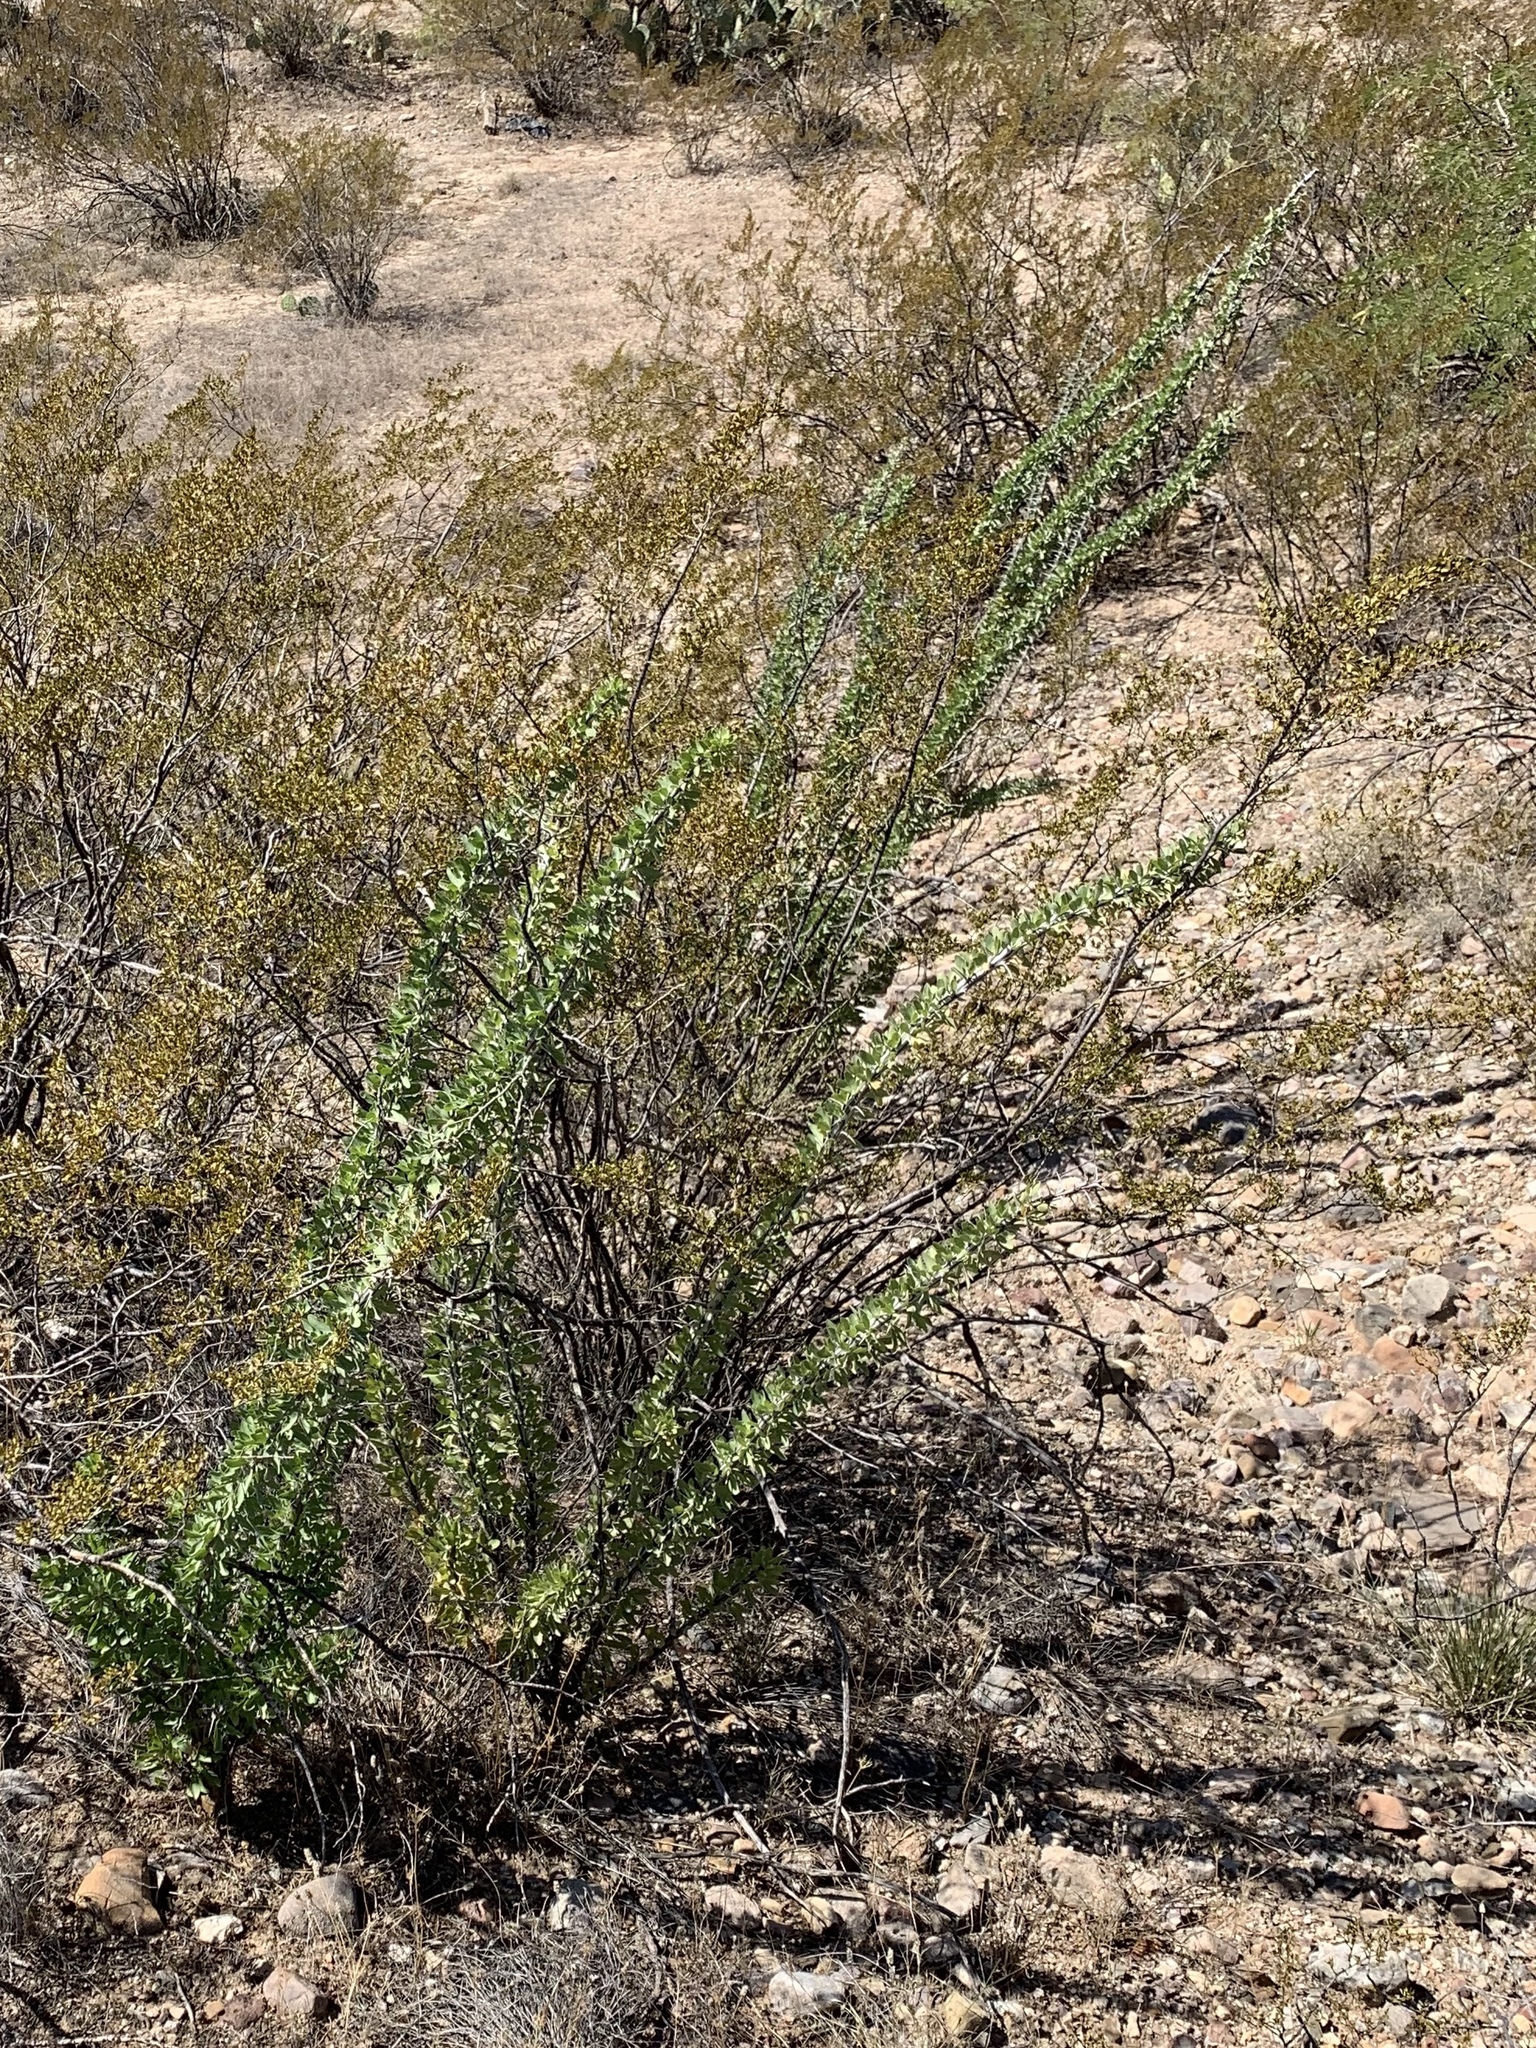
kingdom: Plantae
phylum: Tracheophyta
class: Magnoliopsida
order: Ericales
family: Fouquieriaceae
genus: Fouquieria
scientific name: Fouquieria splendens
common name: Vine-cactus
